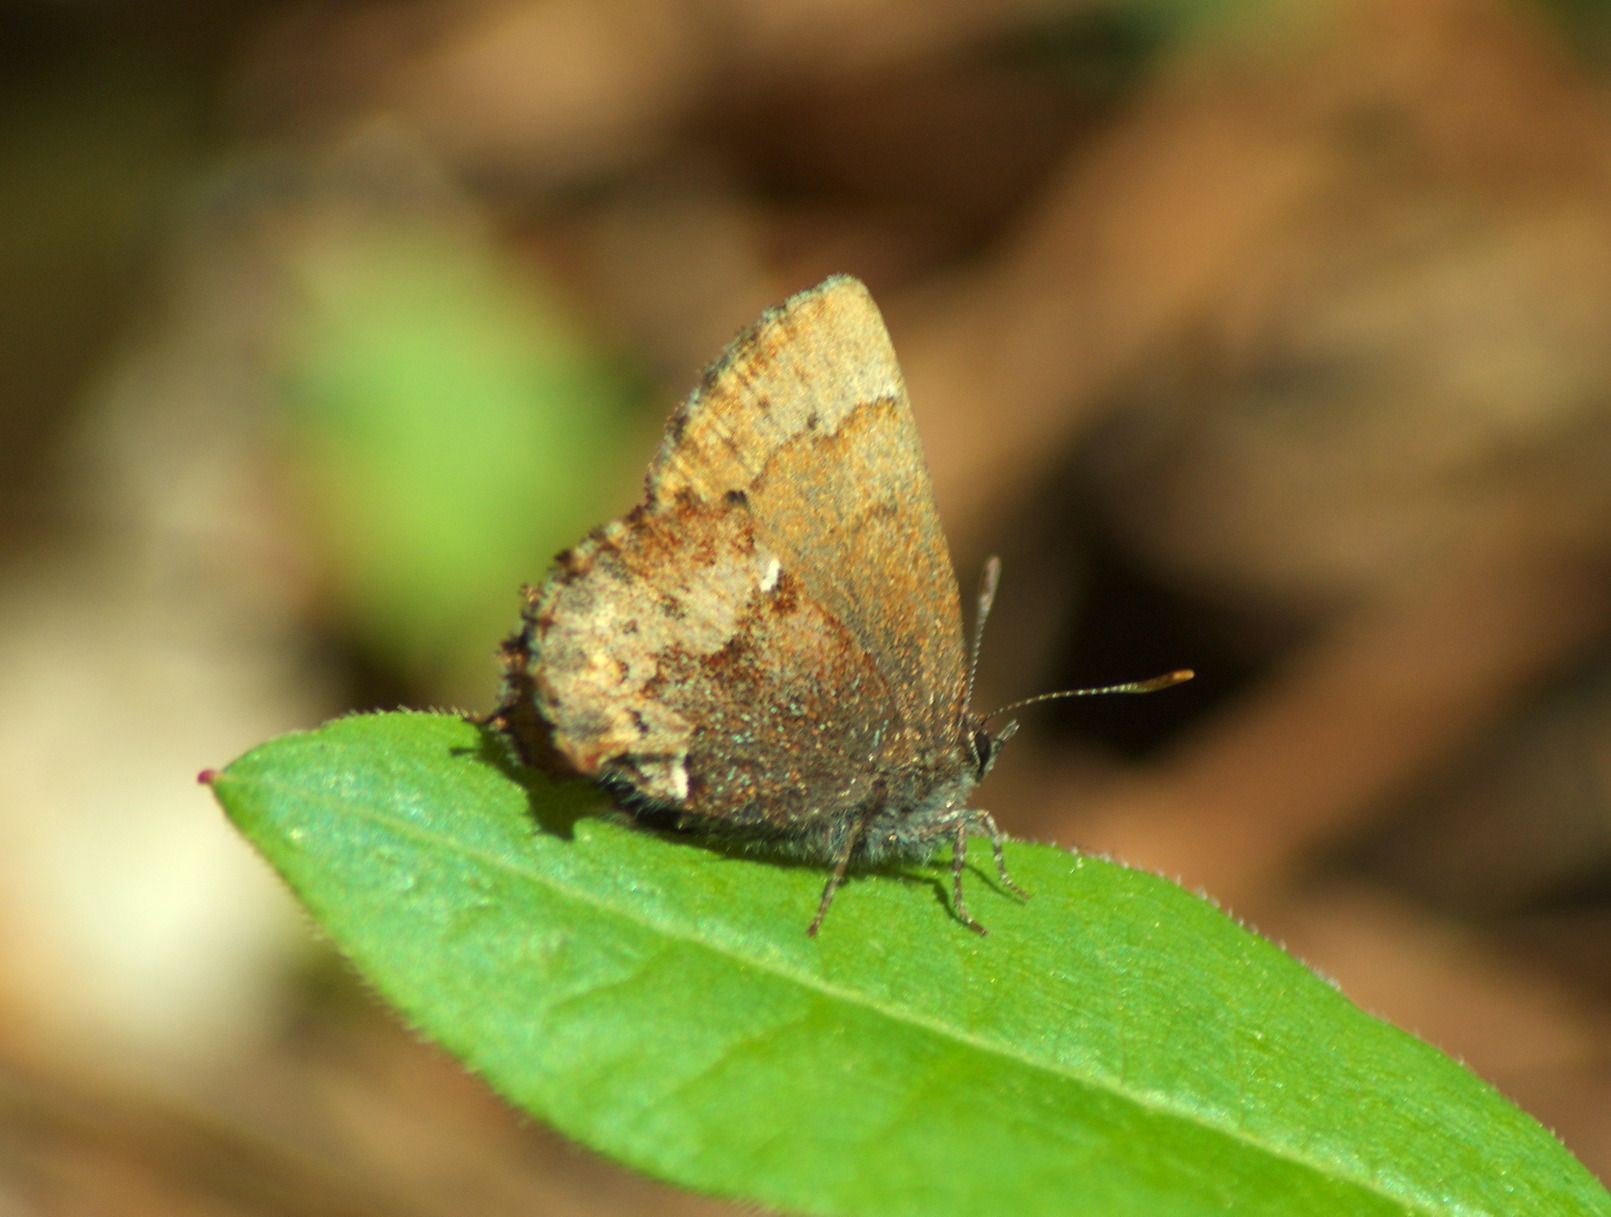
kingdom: Animalia
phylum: Arthropoda
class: Insecta
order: Lepidoptera
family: Lycaenidae
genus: Incisalia
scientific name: Incisalia henrici
